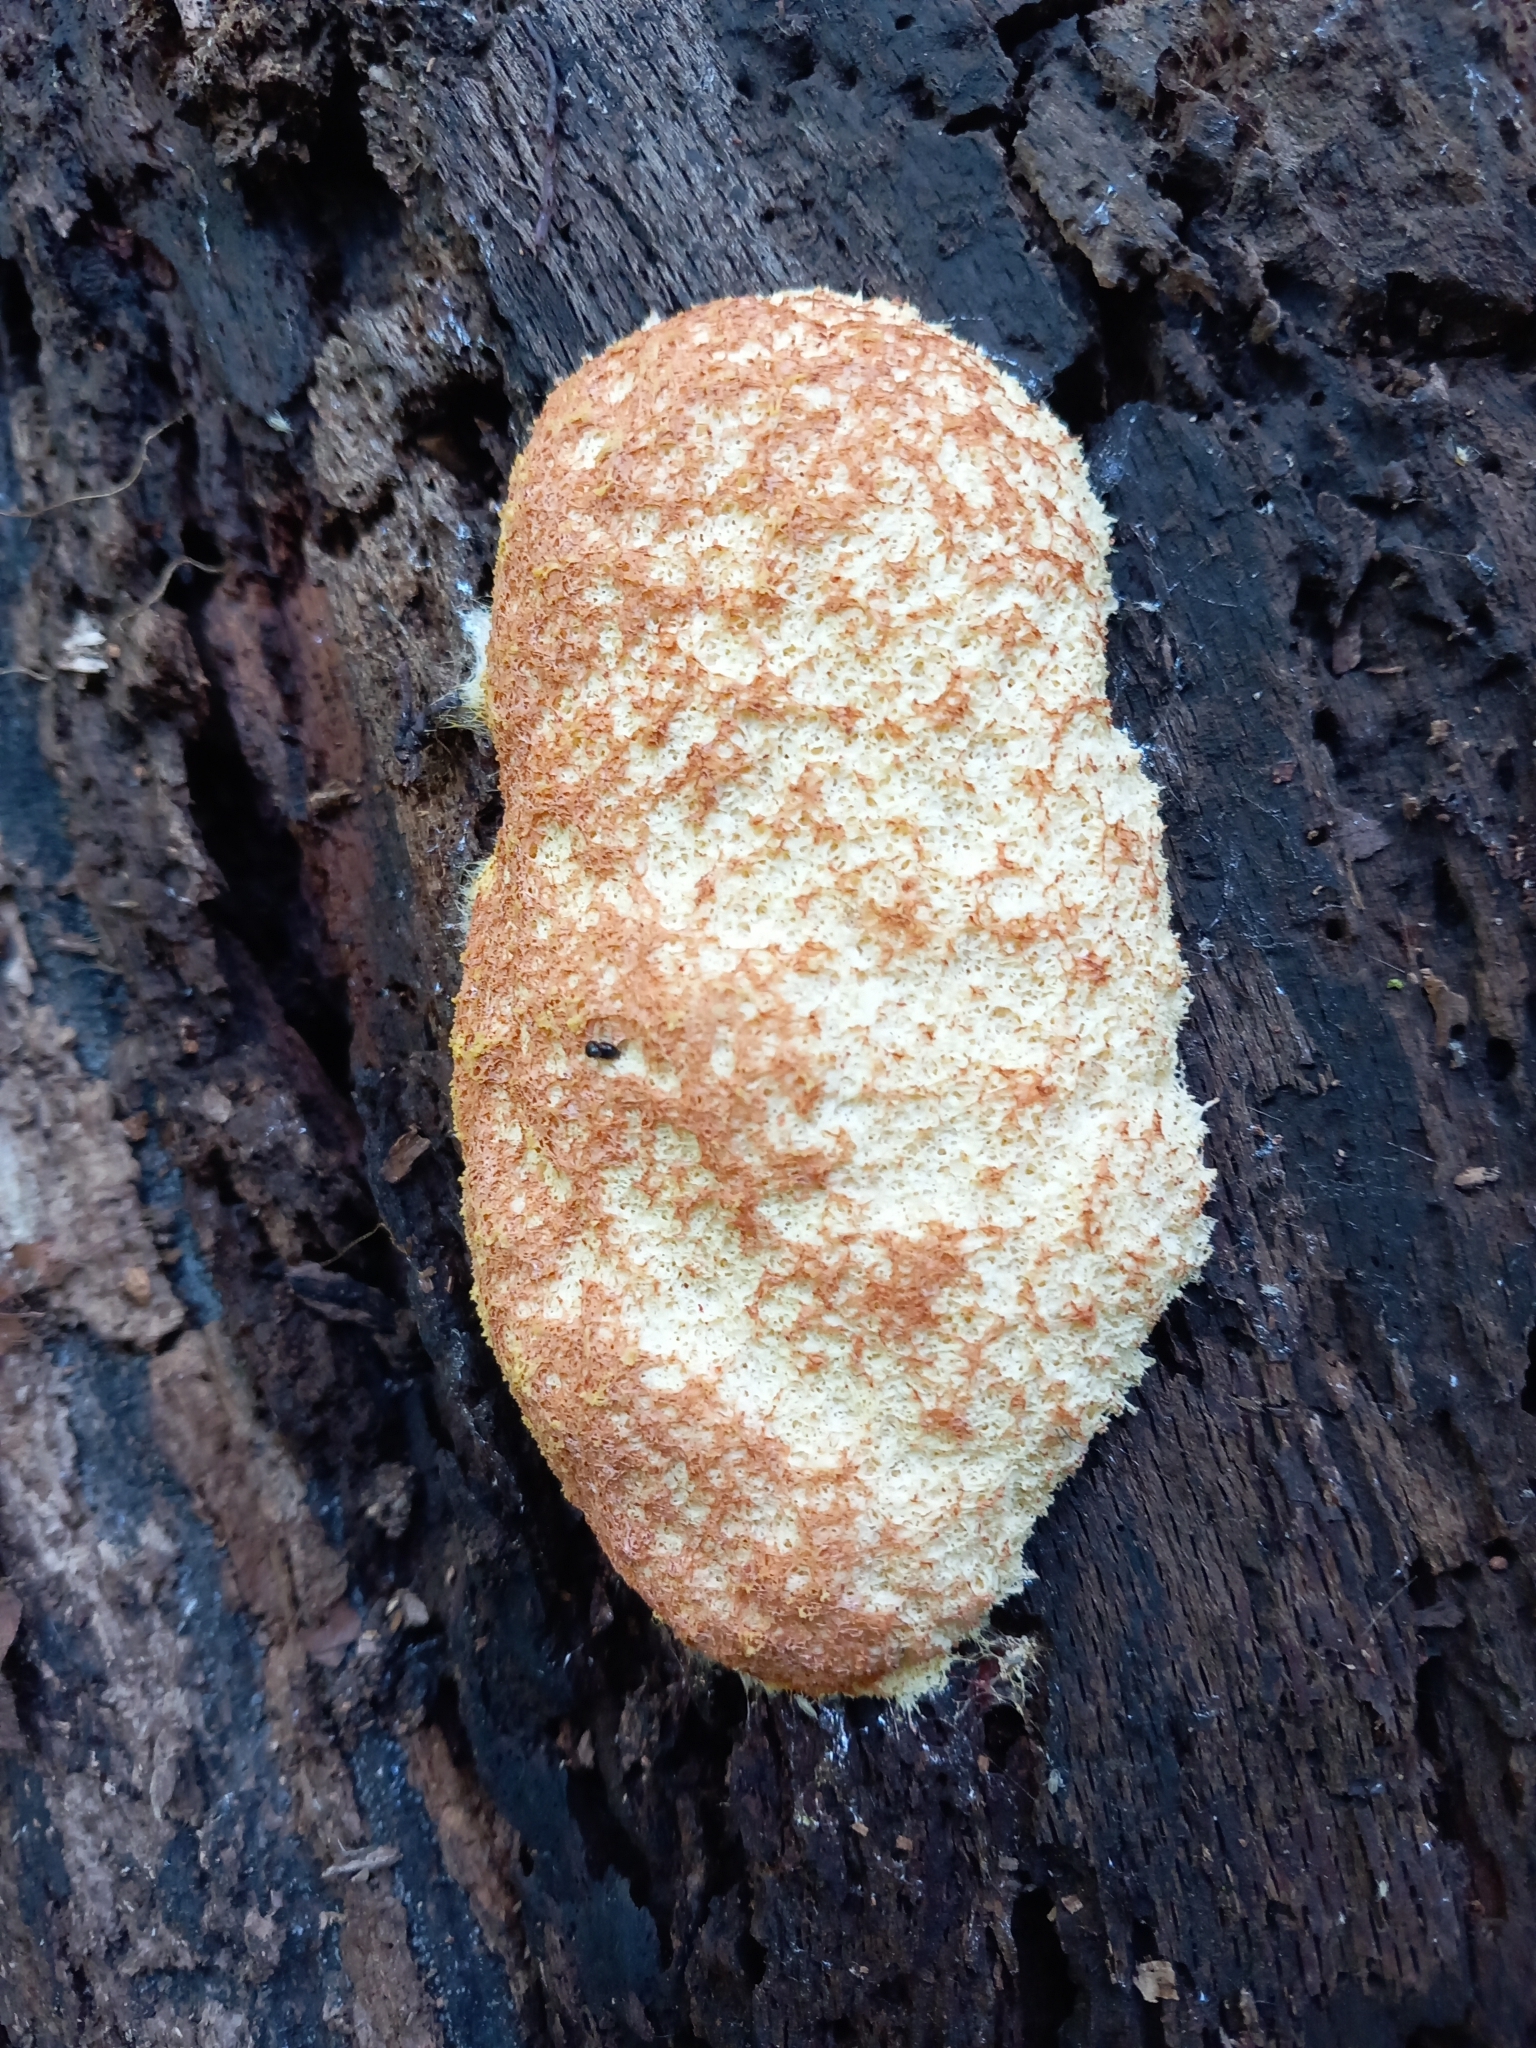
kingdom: Protozoa
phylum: Mycetozoa
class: Myxomycetes
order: Physarales
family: Physaraceae
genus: Fuligo
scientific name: Fuligo septica
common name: Dog vomit slime mold
